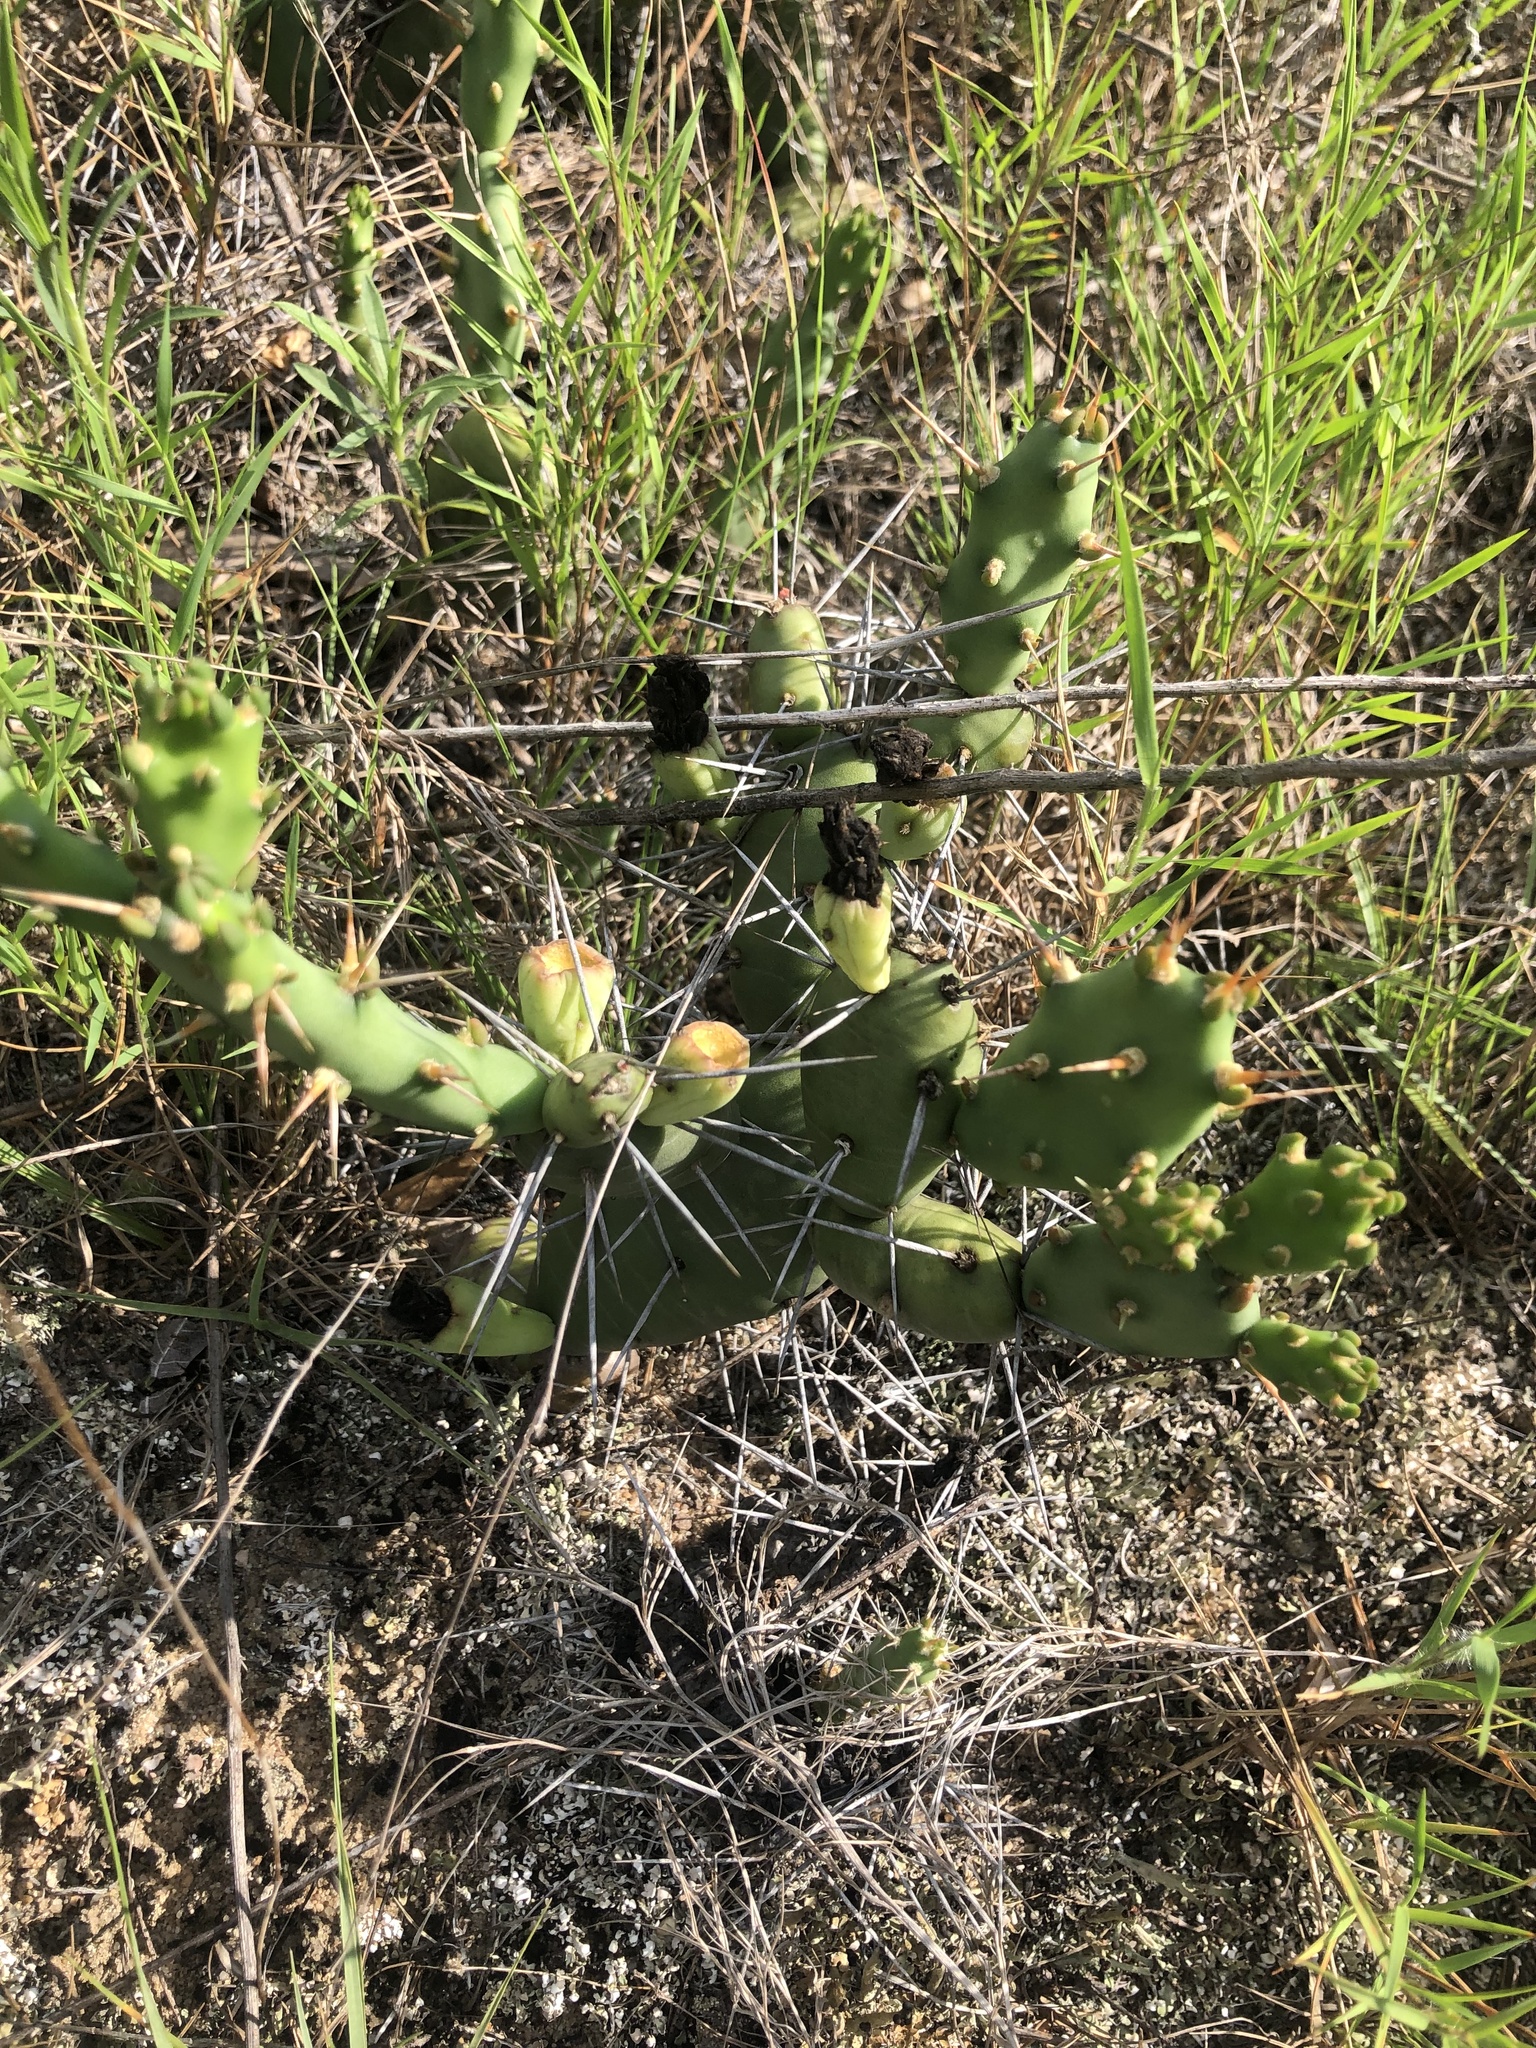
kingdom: Plantae
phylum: Tracheophyta
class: Magnoliopsida
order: Caryophyllales
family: Cactaceae
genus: Opuntia
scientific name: Opuntia drummondii
